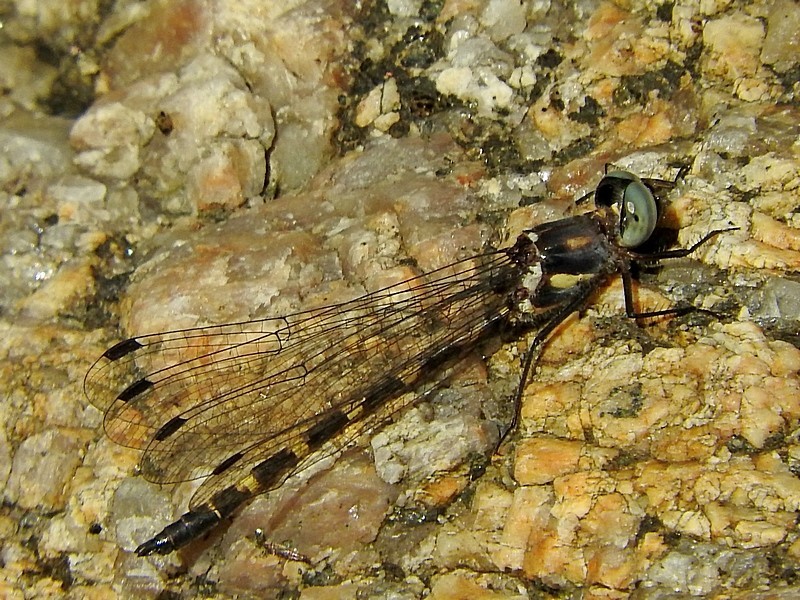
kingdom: Animalia
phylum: Arthropoda
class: Insecta
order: Odonata
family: Corduliidae
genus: Cordulephya
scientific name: Cordulephya pygmaea
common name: Common shutwing
